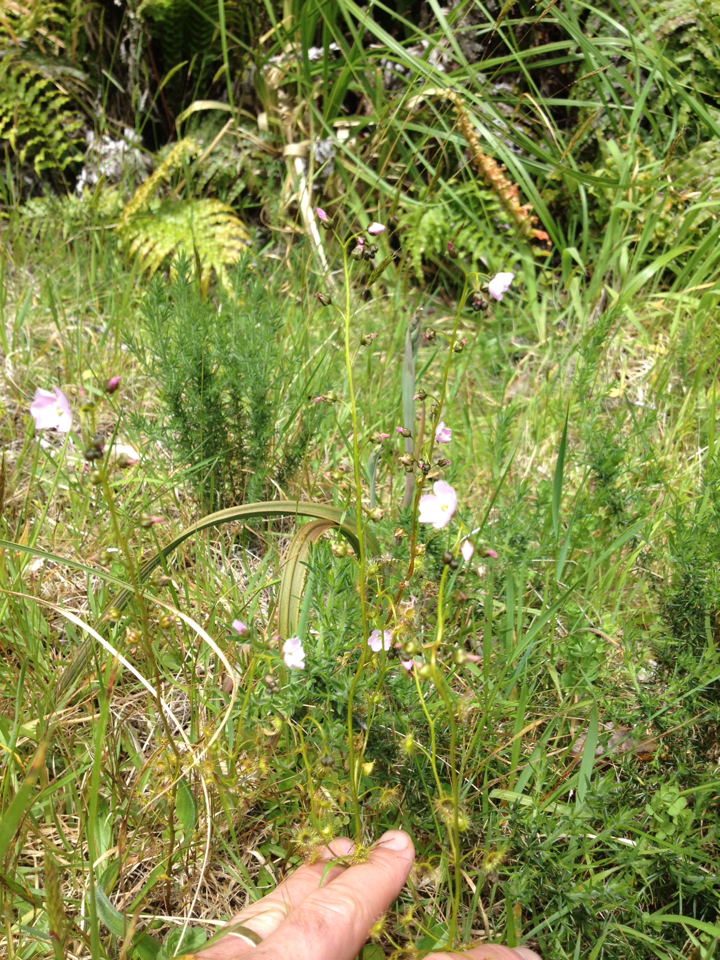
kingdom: Plantae
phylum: Tracheophyta
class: Magnoliopsida
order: Caryophyllales
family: Droseraceae
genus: Drosera
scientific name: Drosera peltata
